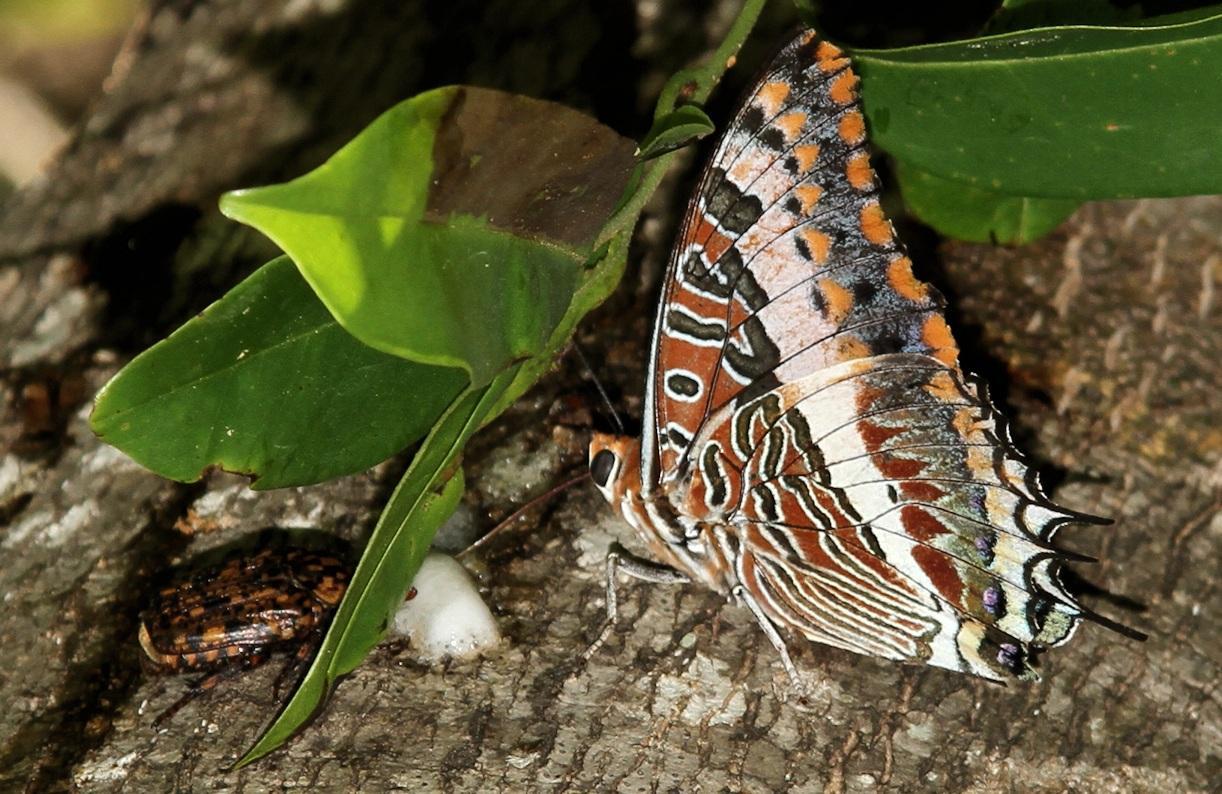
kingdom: Animalia
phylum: Arthropoda
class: Insecta
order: Lepidoptera
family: Nymphalidae
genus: Charaxes
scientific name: Charaxes jasius
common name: Two tailed pasha
